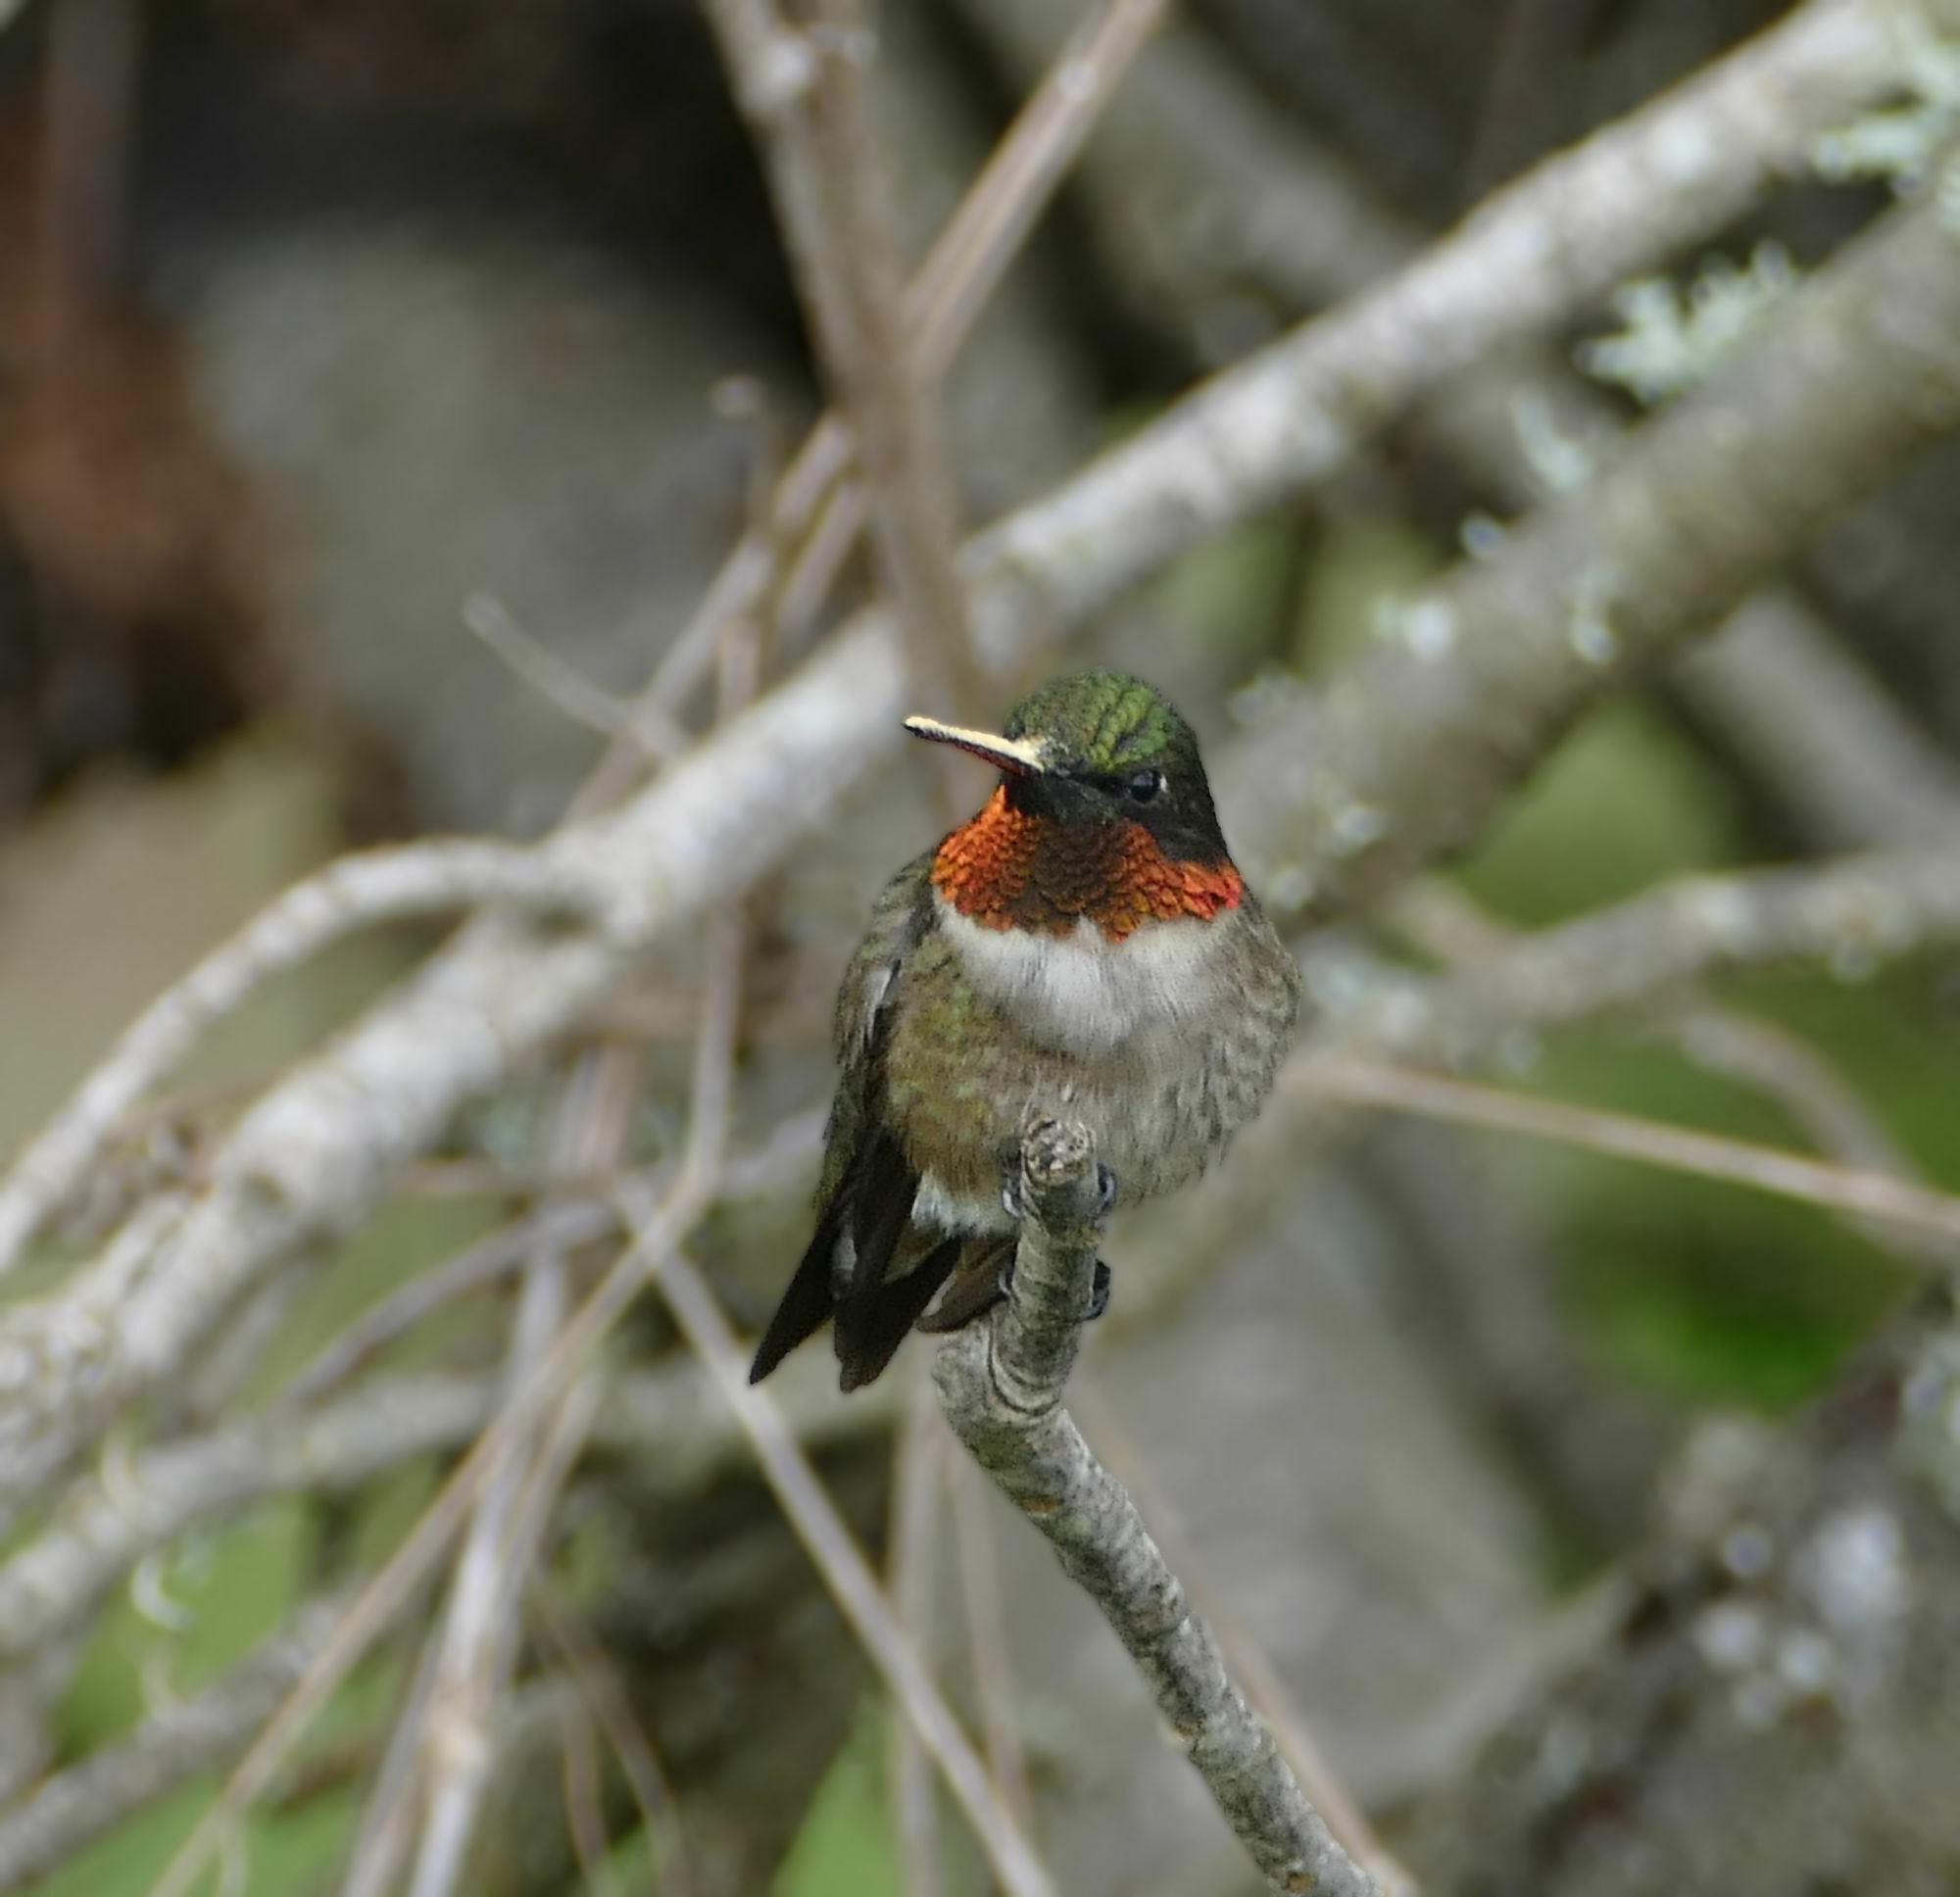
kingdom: Animalia
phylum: Chordata
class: Aves
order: Apodiformes
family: Trochilidae
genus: Archilochus
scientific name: Archilochus colubris
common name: Ruby-throated hummingbird
